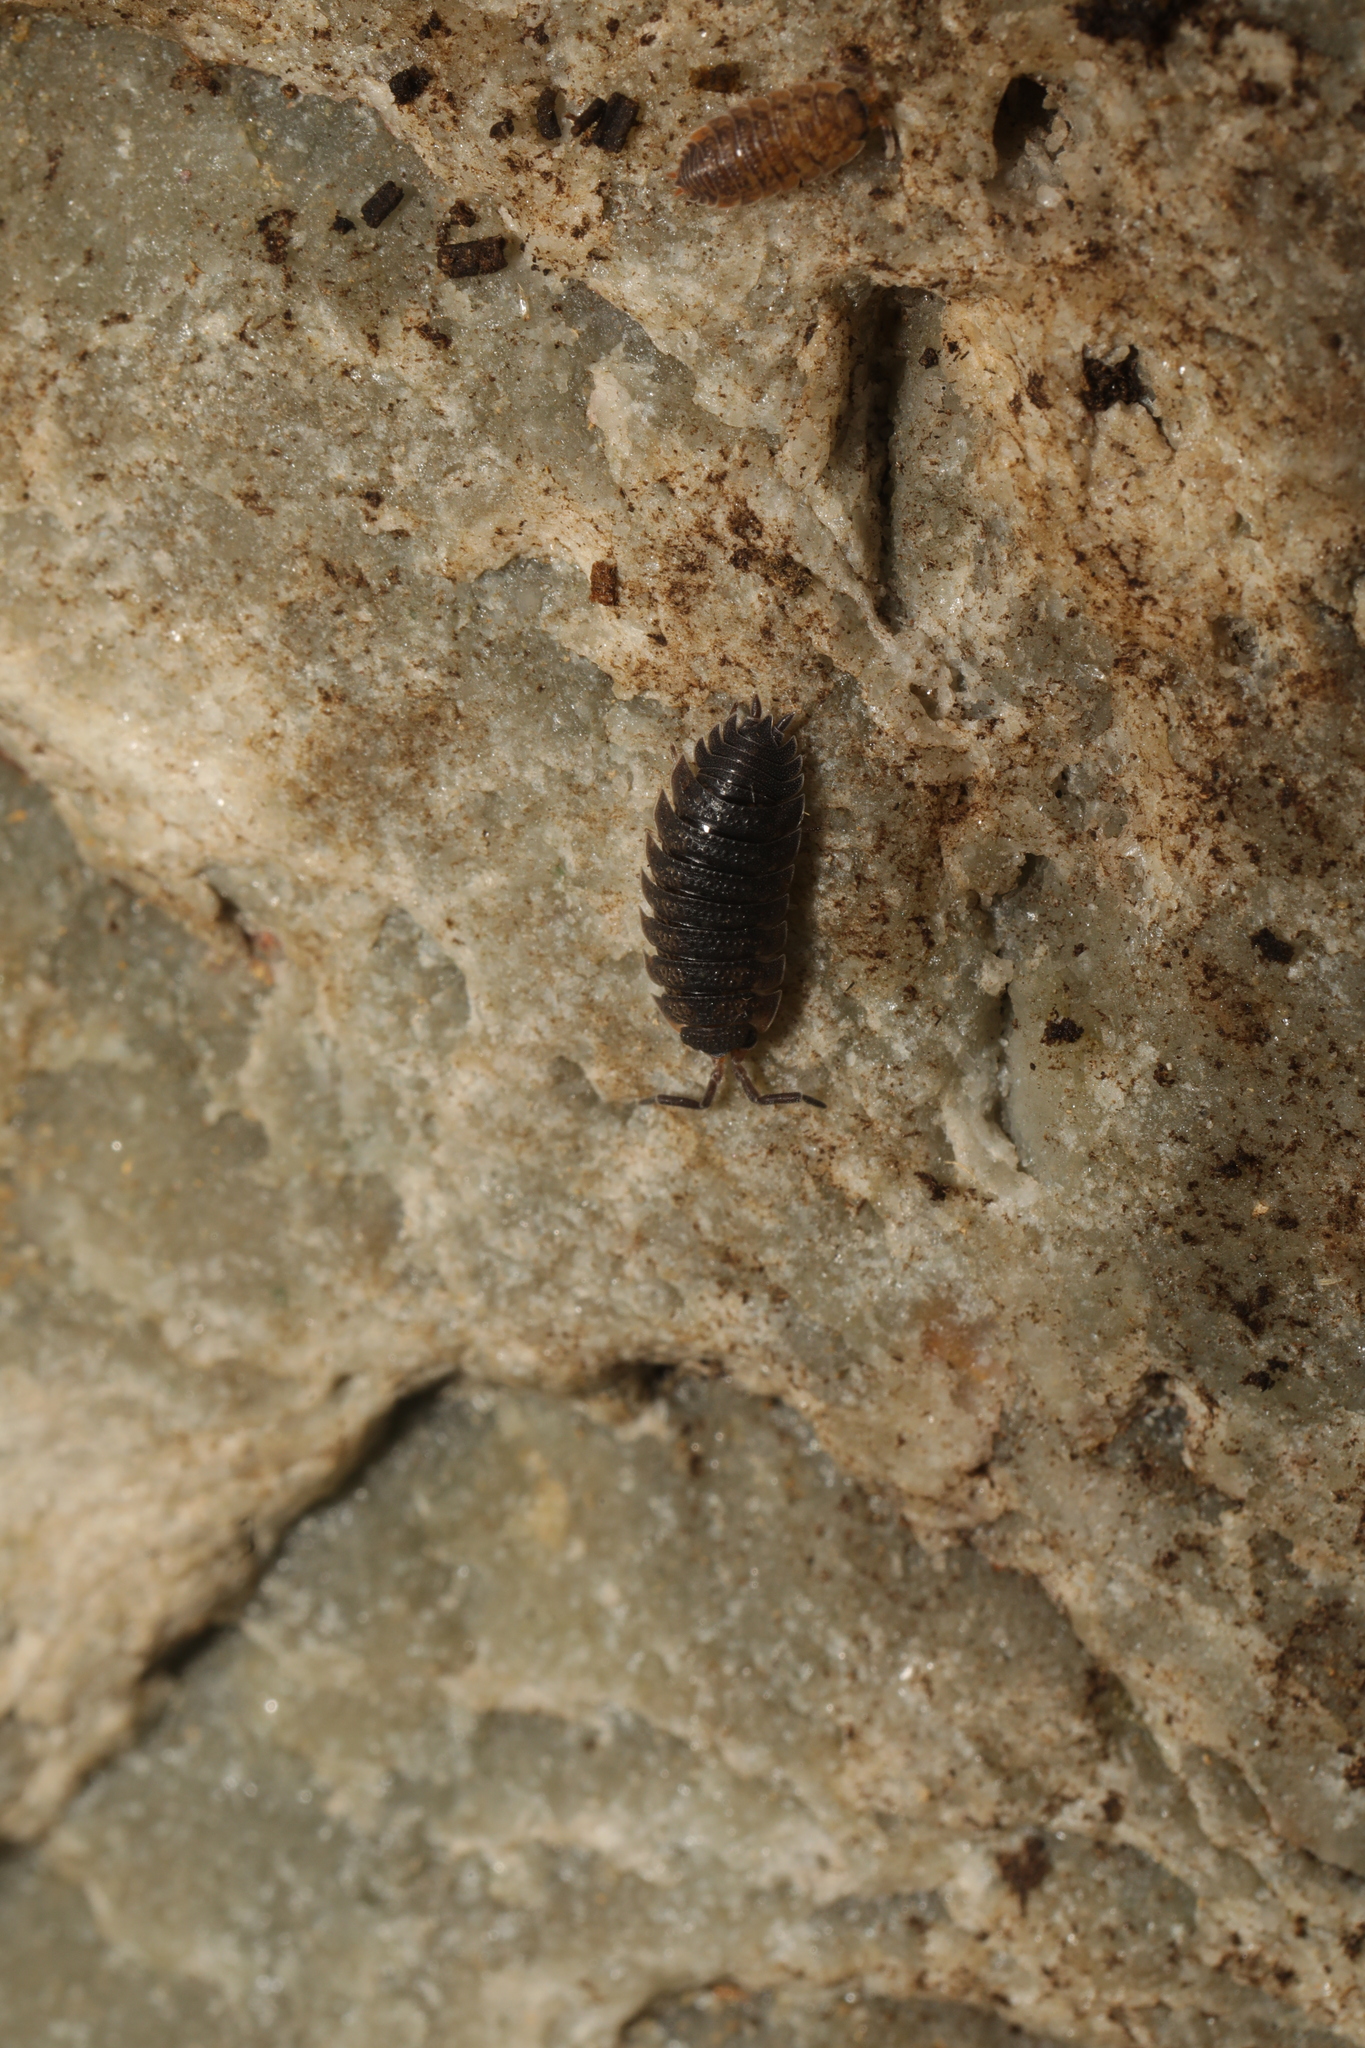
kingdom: Animalia
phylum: Arthropoda
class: Malacostraca
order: Isopoda
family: Porcellionidae
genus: Porcellio
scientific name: Porcellio scaber
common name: Common rough woodlouse
